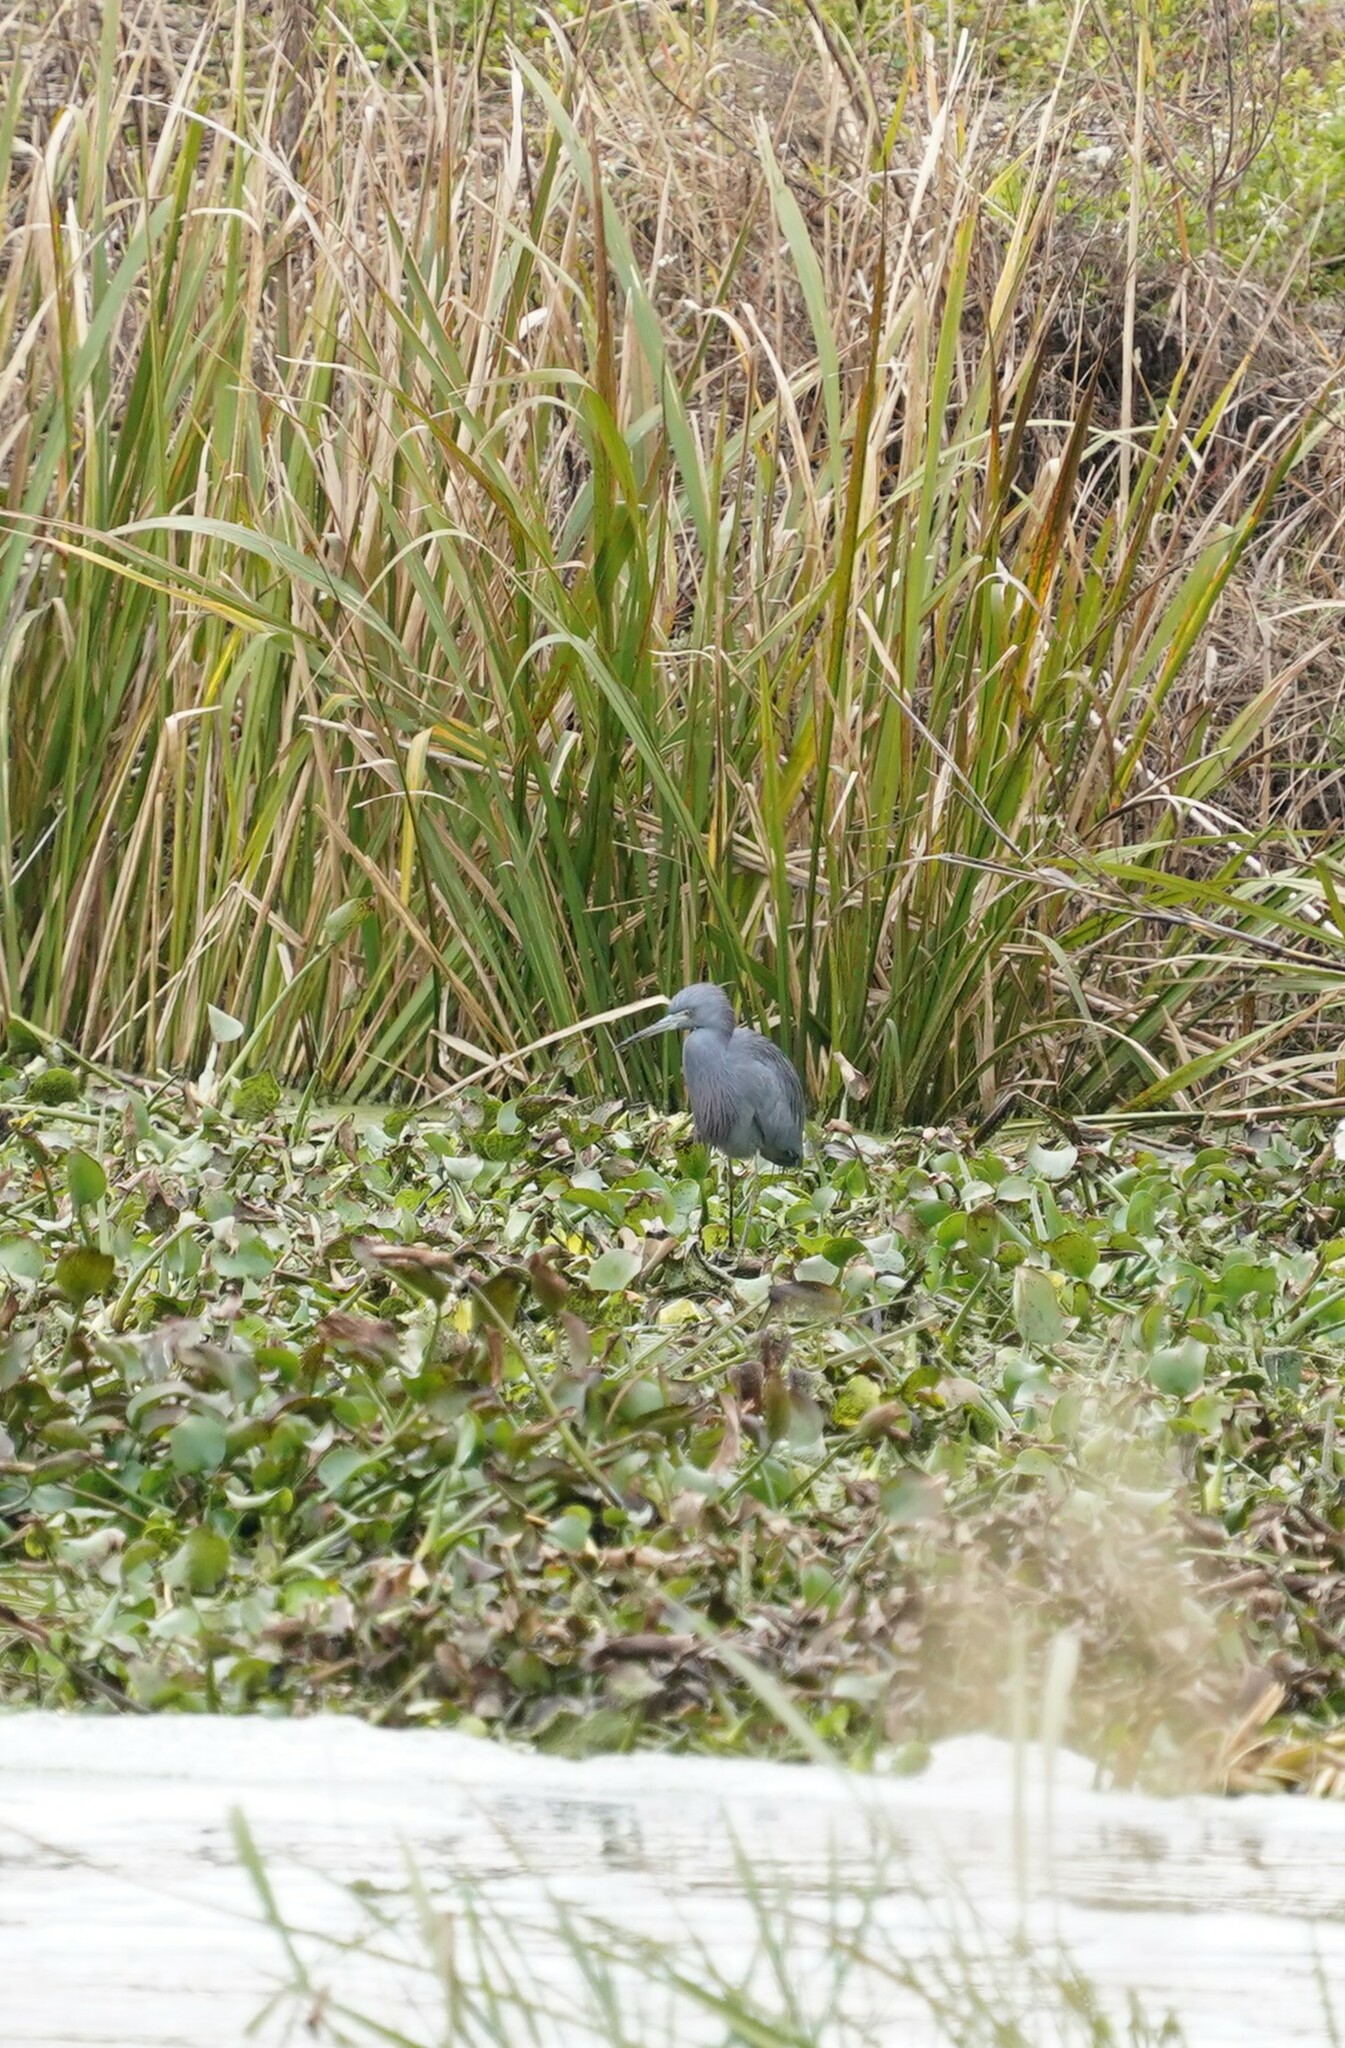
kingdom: Animalia
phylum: Chordata
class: Aves
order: Pelecaniformes
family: Ardeidae
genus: Egretta
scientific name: Egretta caerulea
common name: Little blue heron
